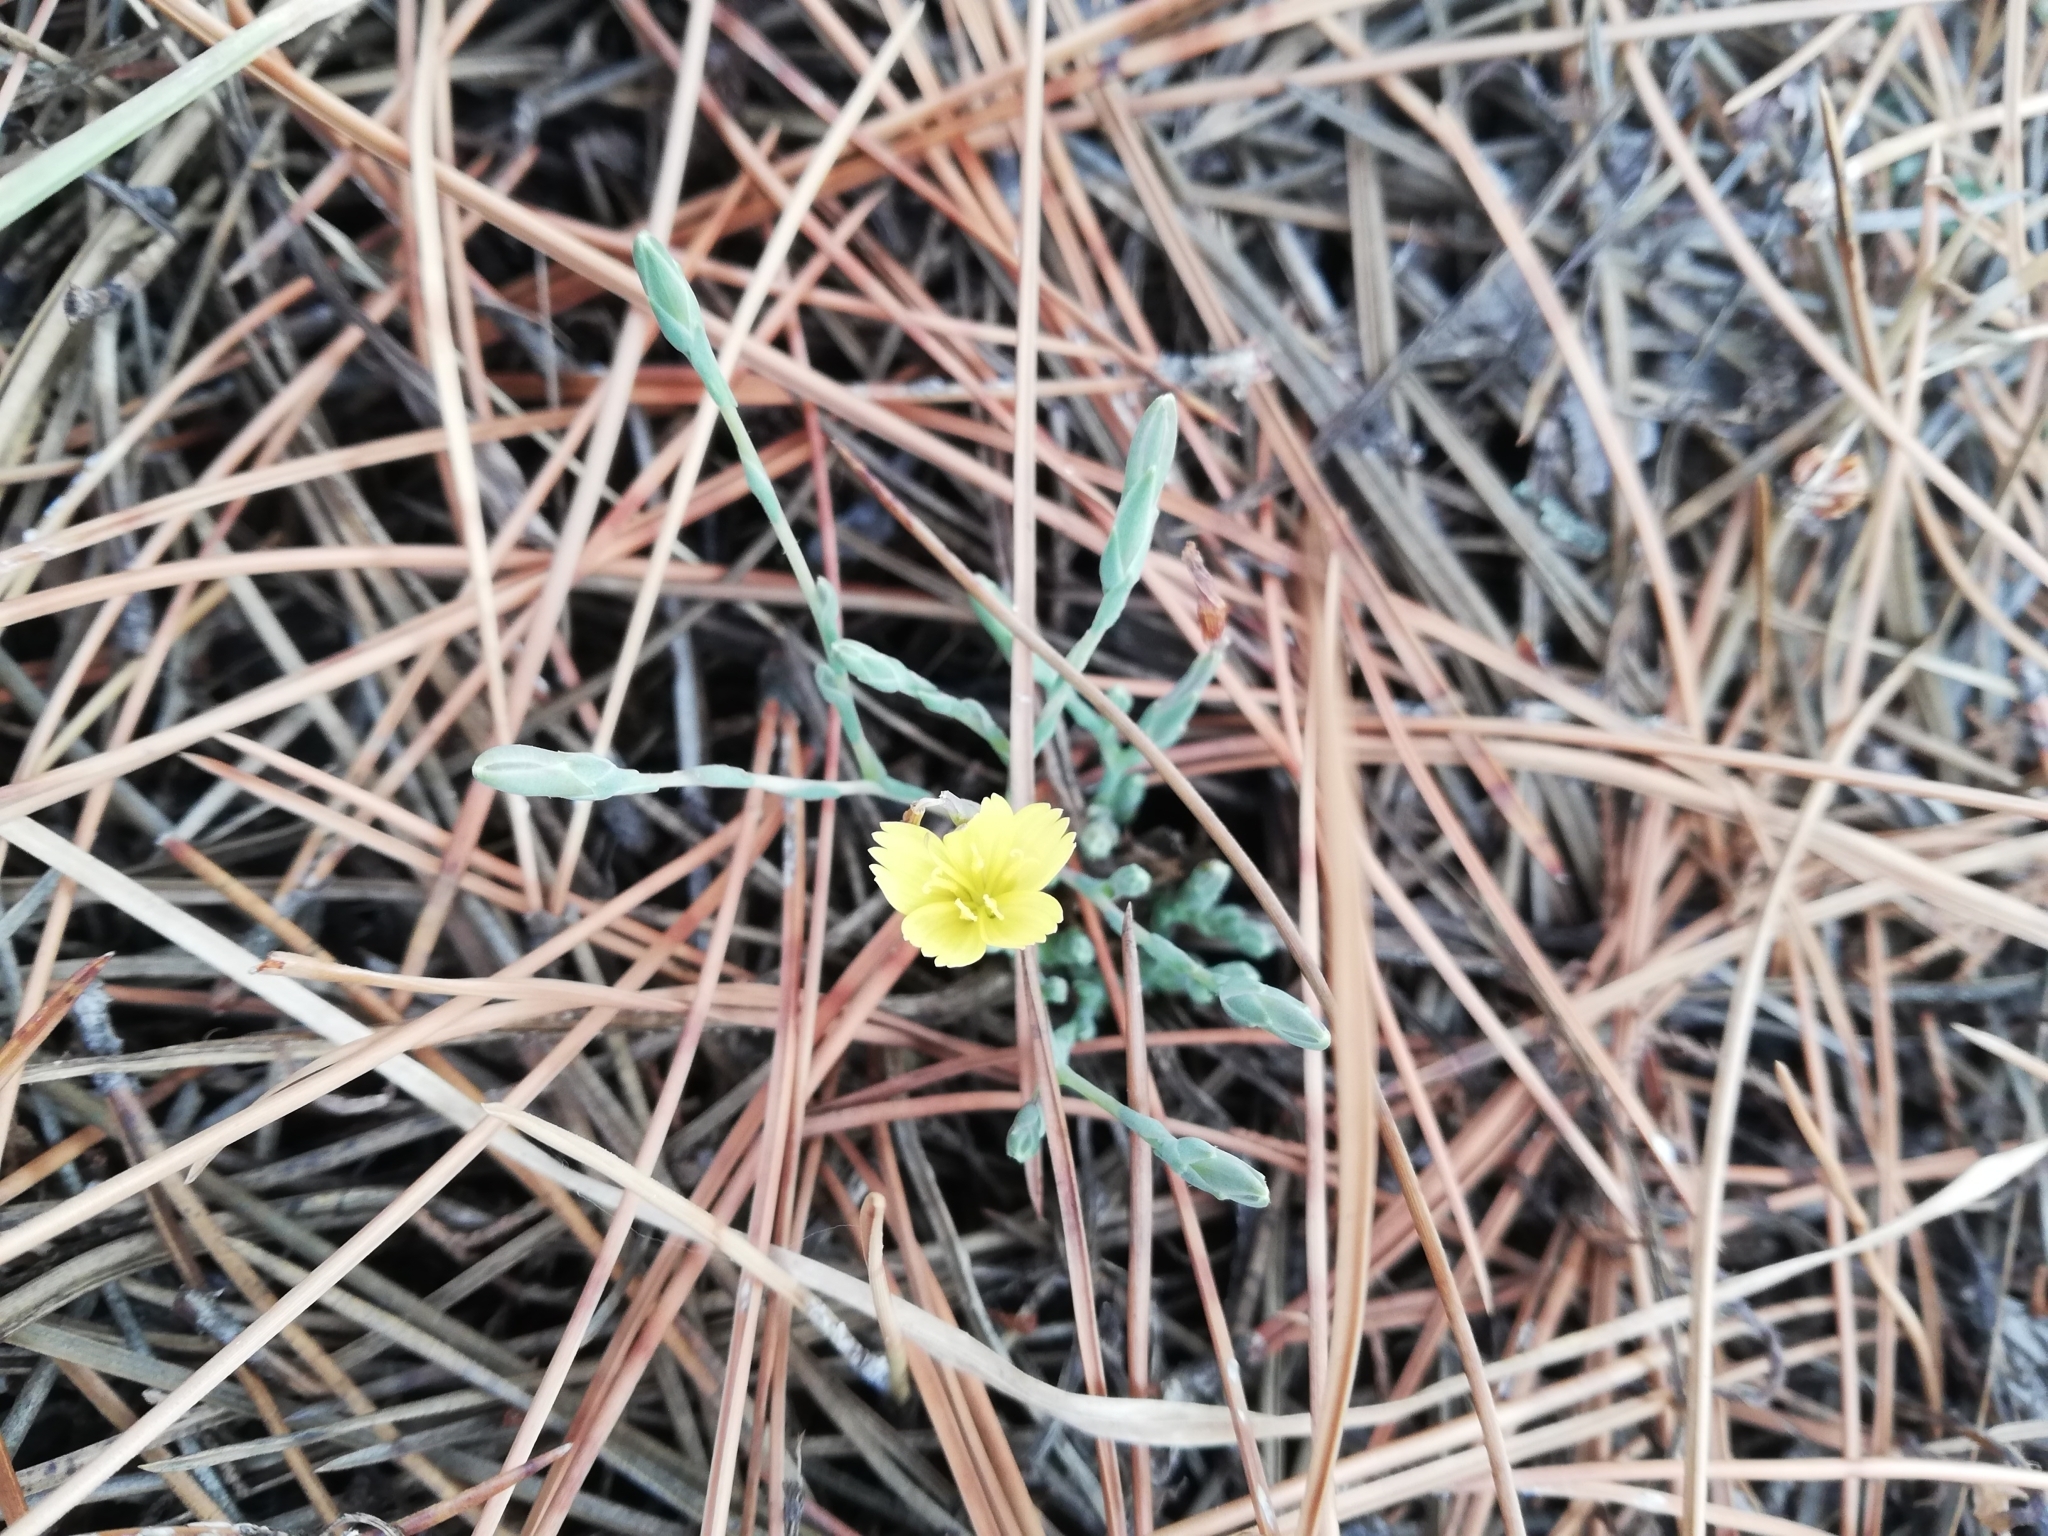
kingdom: Plantae
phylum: Tracheophyta
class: Magnoliopsida
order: Asterales
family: Asteraceae
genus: Lactuca
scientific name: Lactuca viminea
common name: Pliant lettuce
